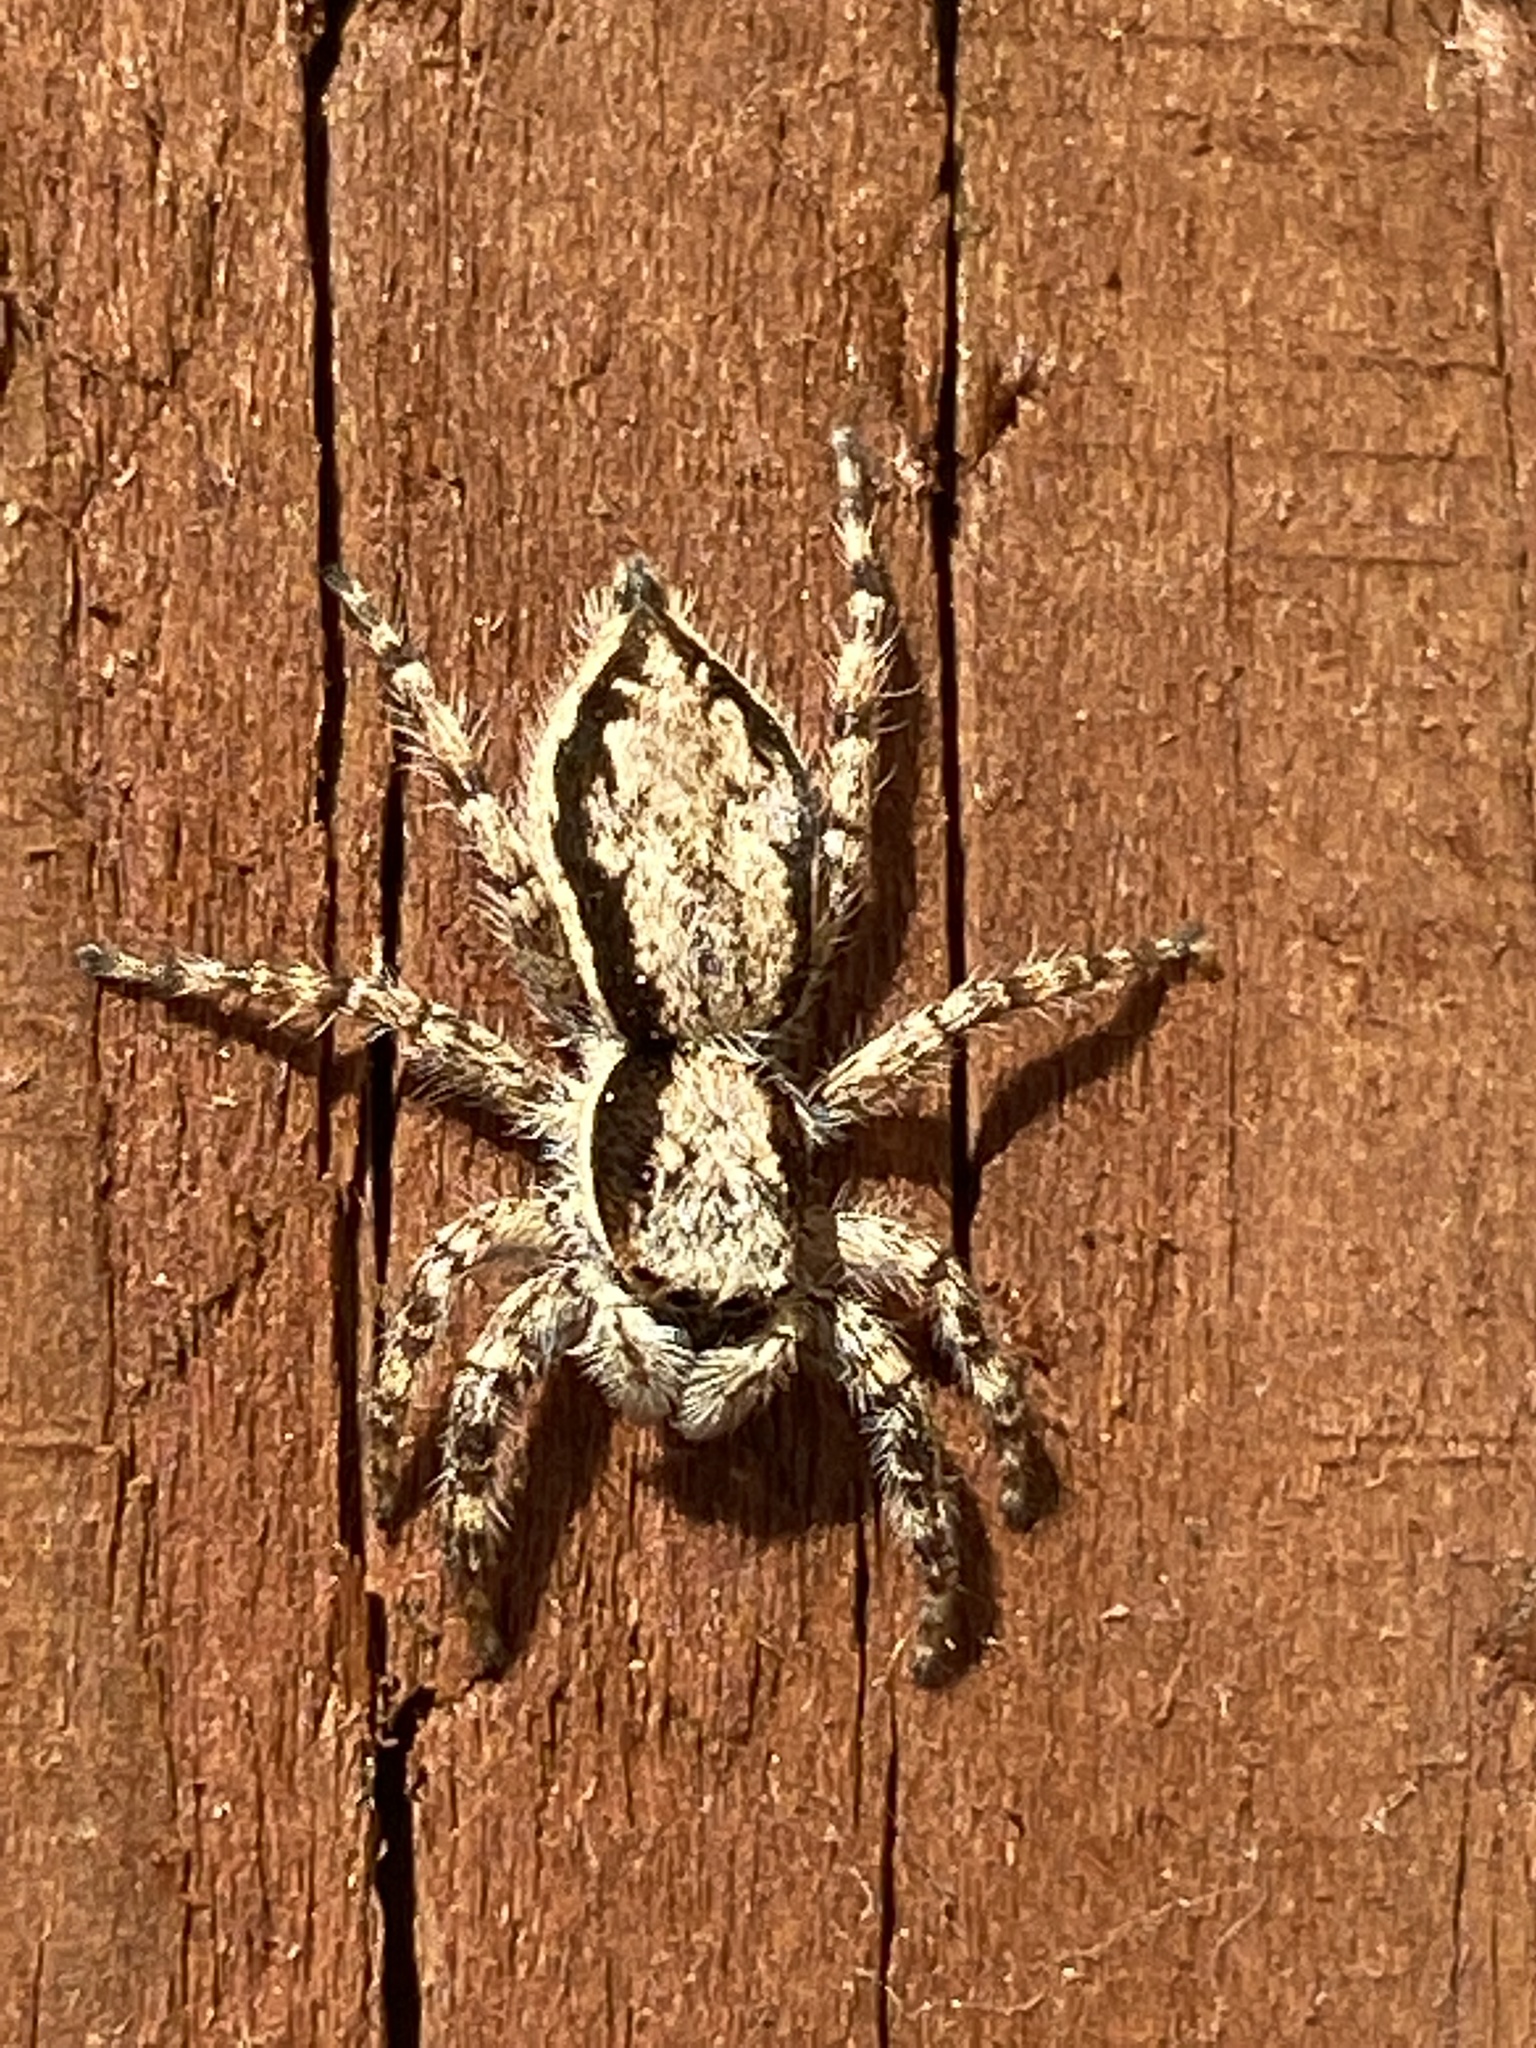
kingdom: Animalia
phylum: Arthropoda
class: Arachnida
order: Araneae
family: Salticidae
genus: Menemerus
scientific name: Menemerus bivittatus
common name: Gray wall jumper
